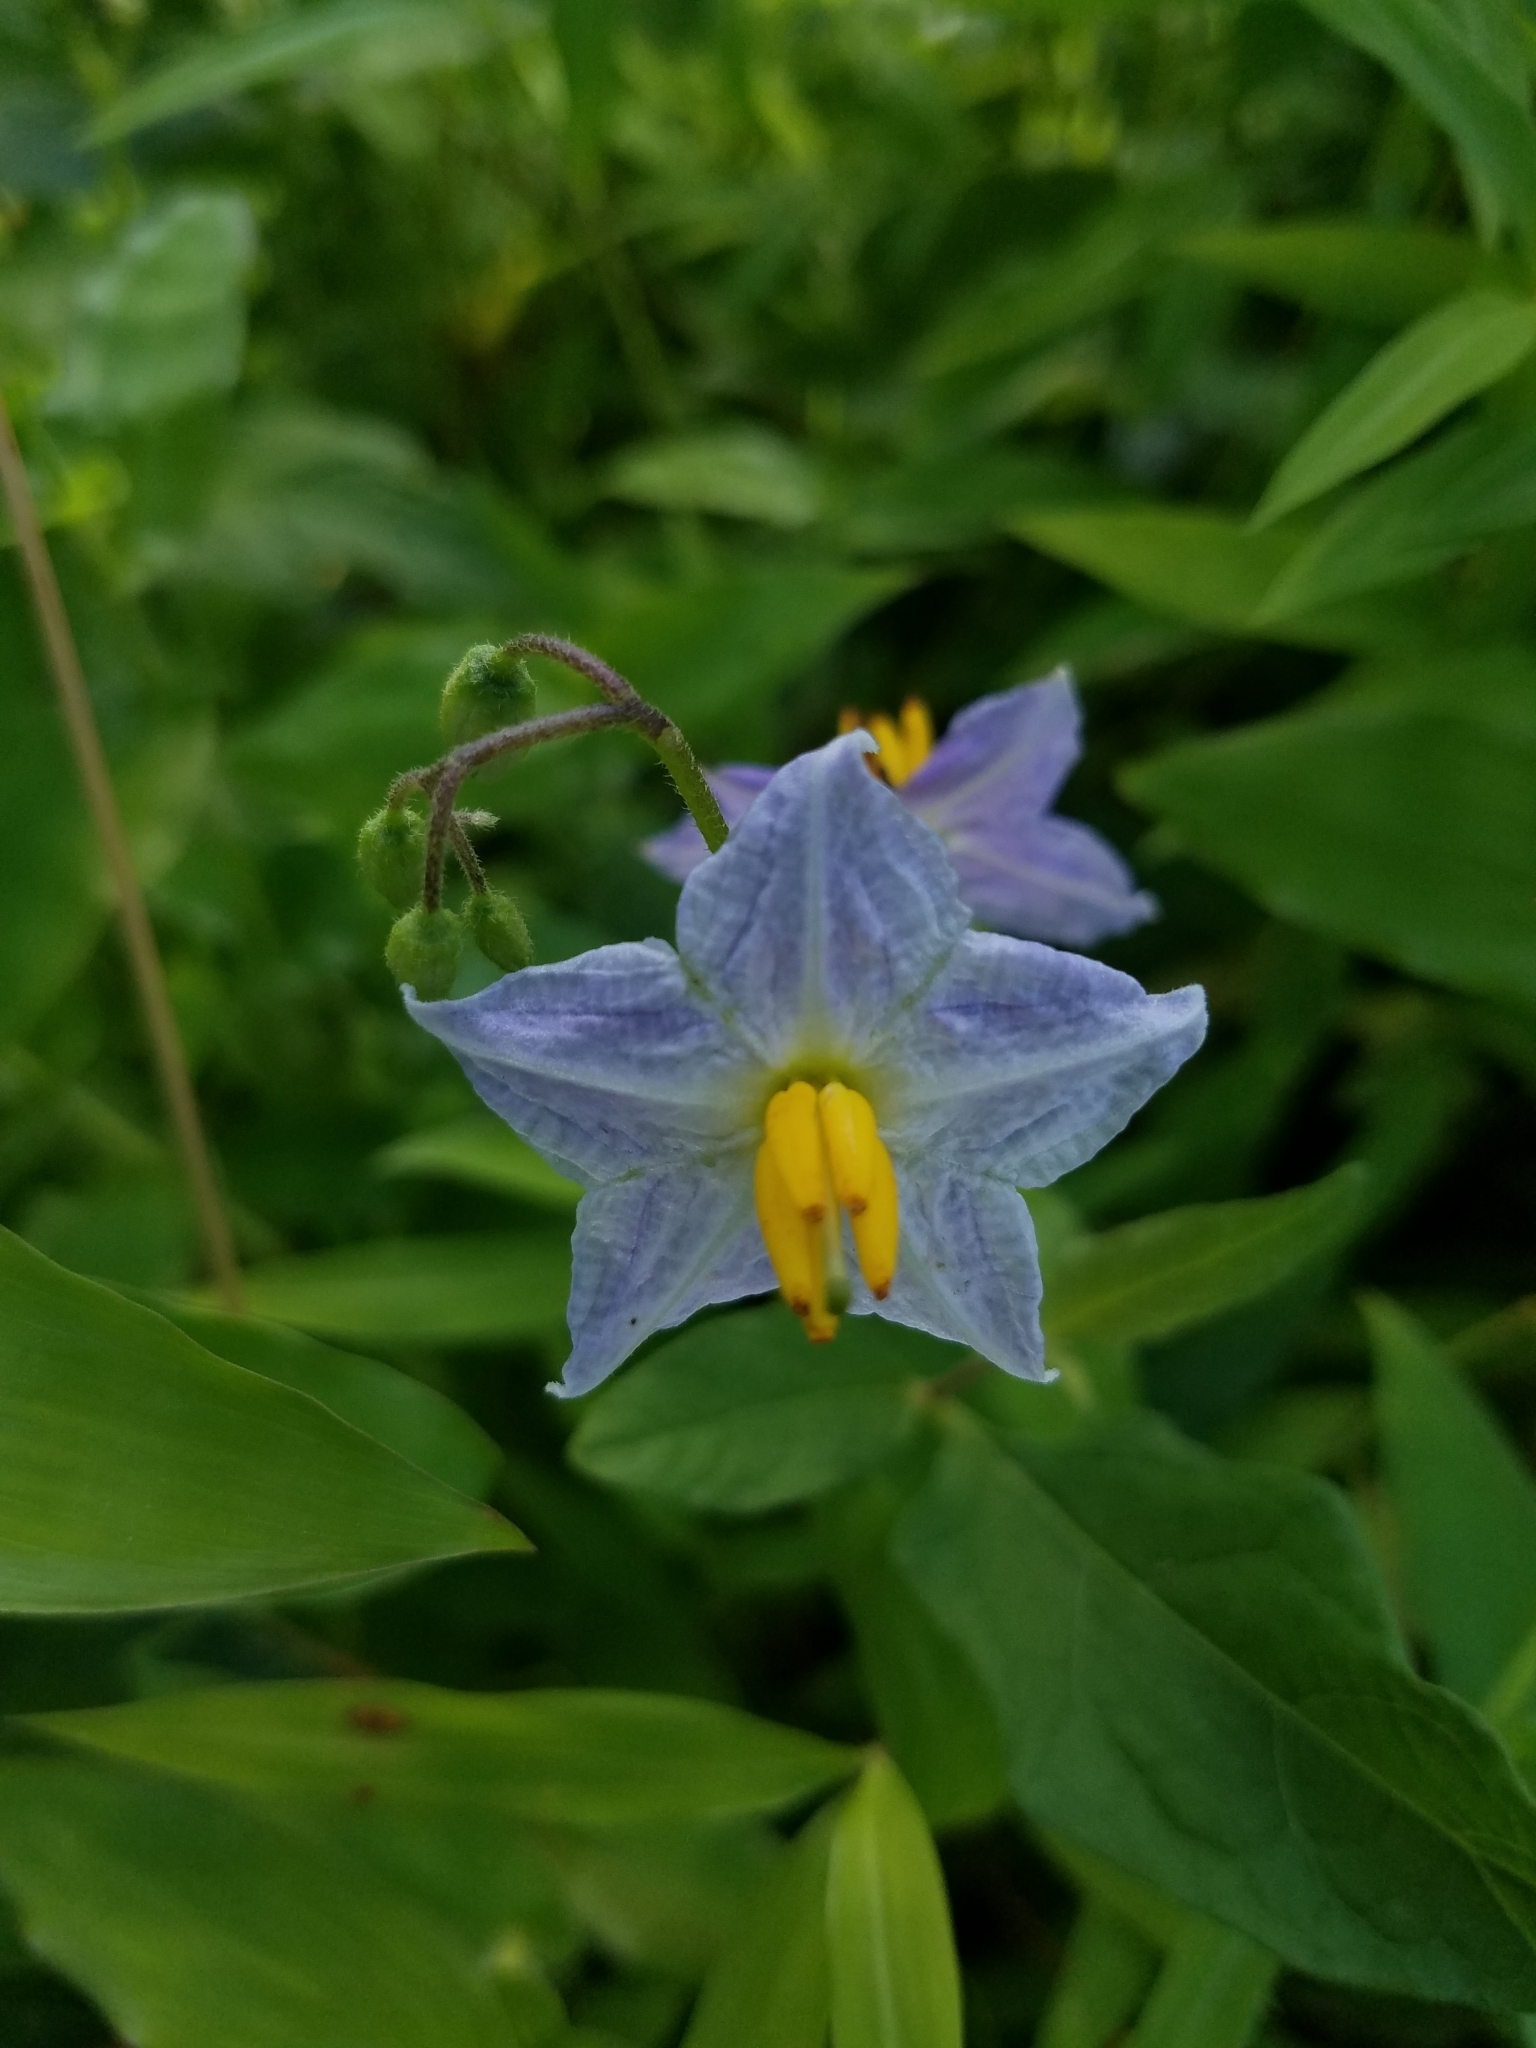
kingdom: Plantae
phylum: Tracheophyta
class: Magnoliopsida
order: Solanales
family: Solanaceae
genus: Solanum
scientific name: Solanum carolinense
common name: Horse-nettle
